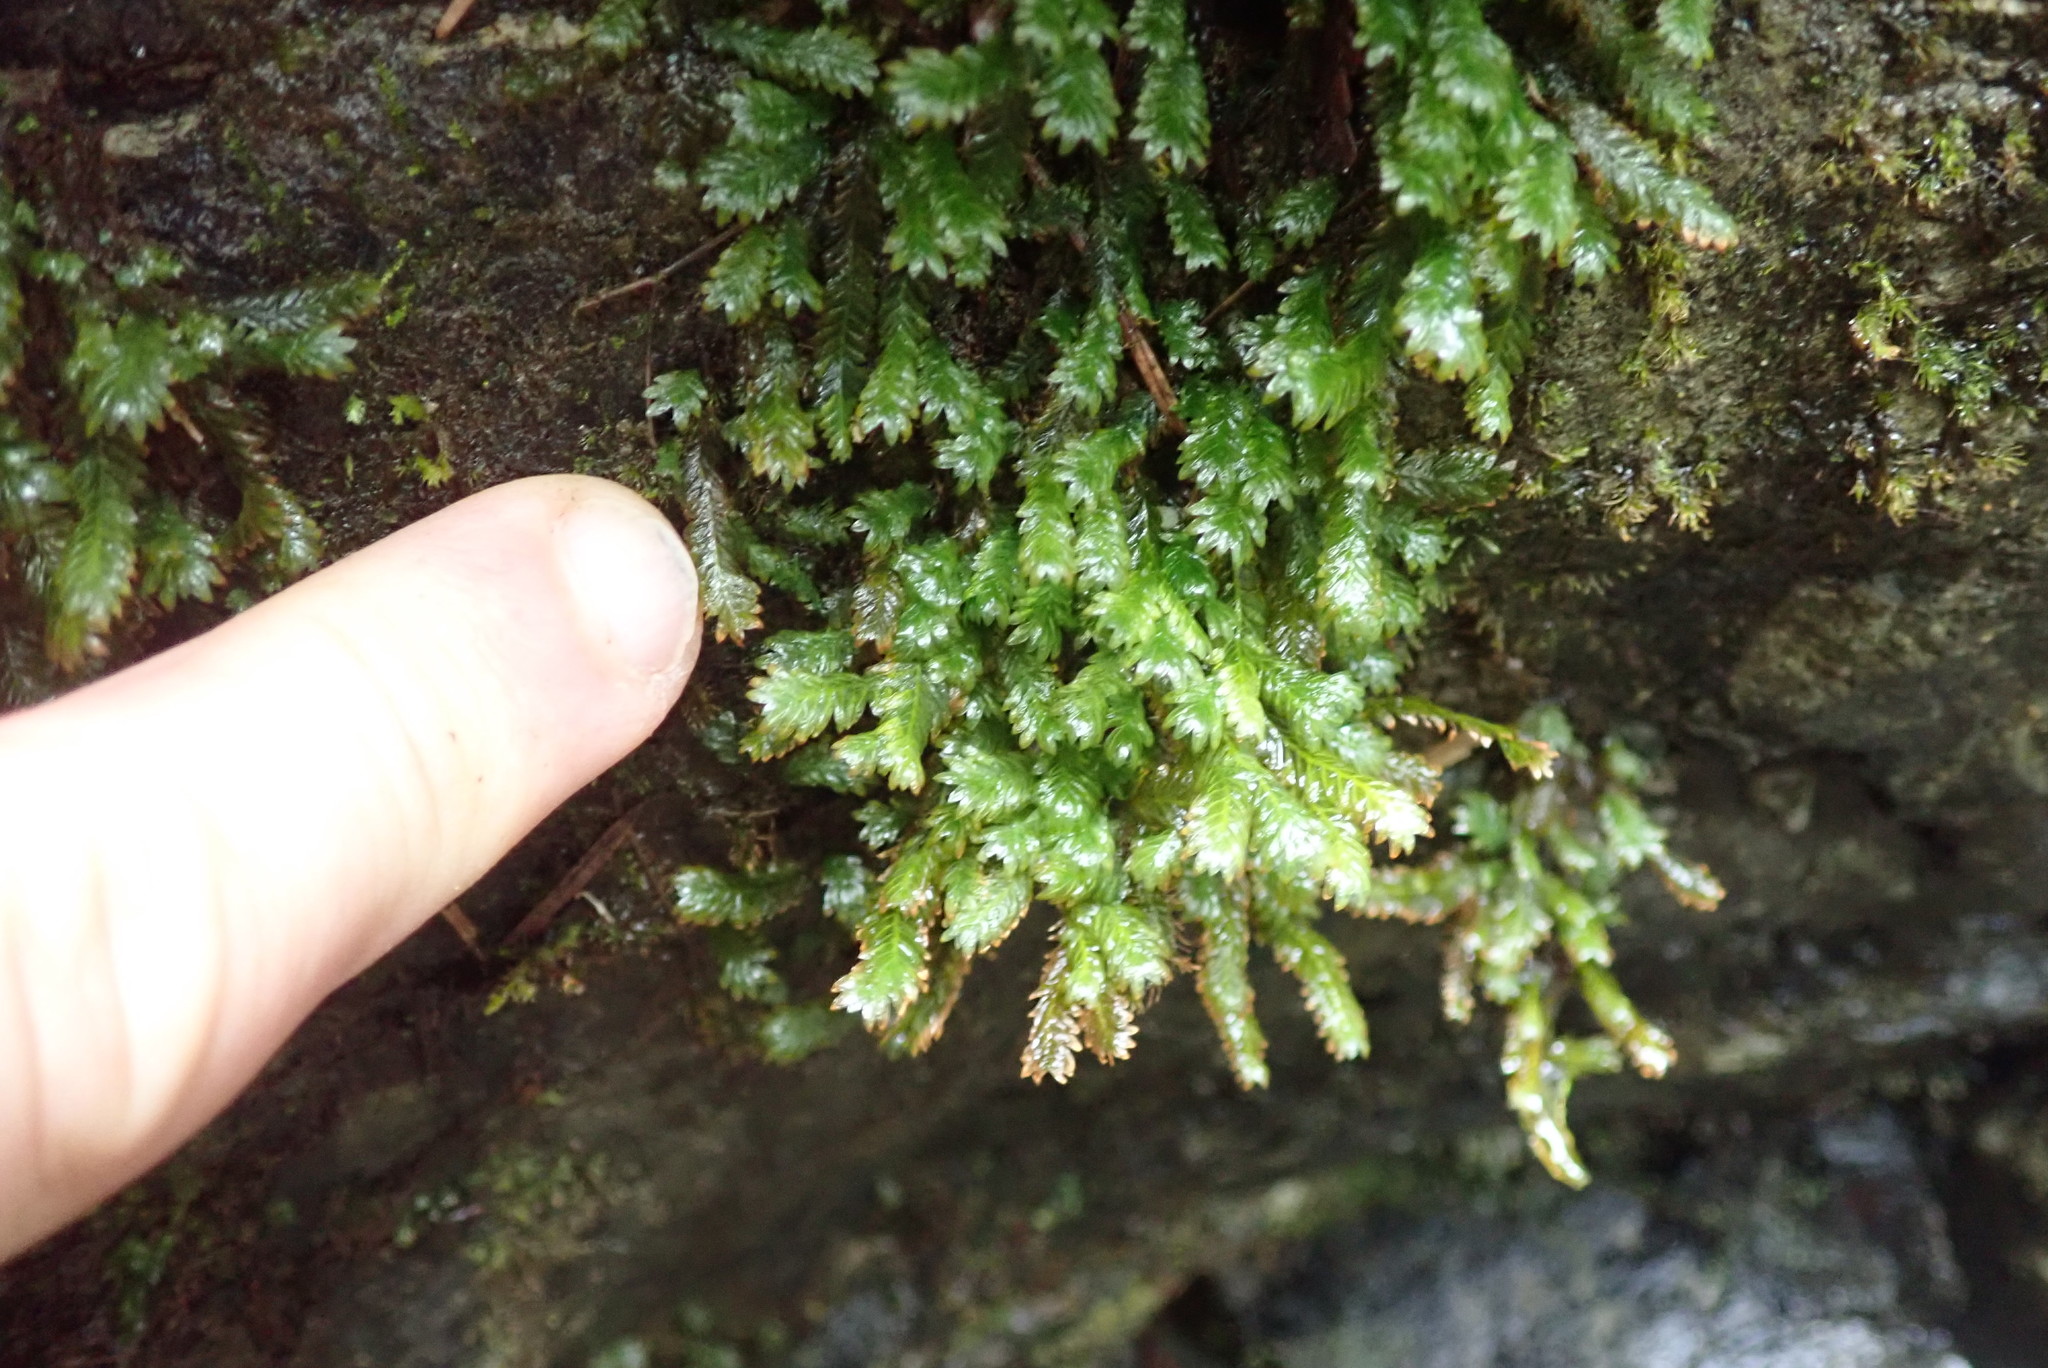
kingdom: Plantae
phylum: Bryophyta
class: Bryopsida
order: Dicranales
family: Fissidentaceae
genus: Fissidens
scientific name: Fissidens adianthoides
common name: Maidenhair pocket moss
